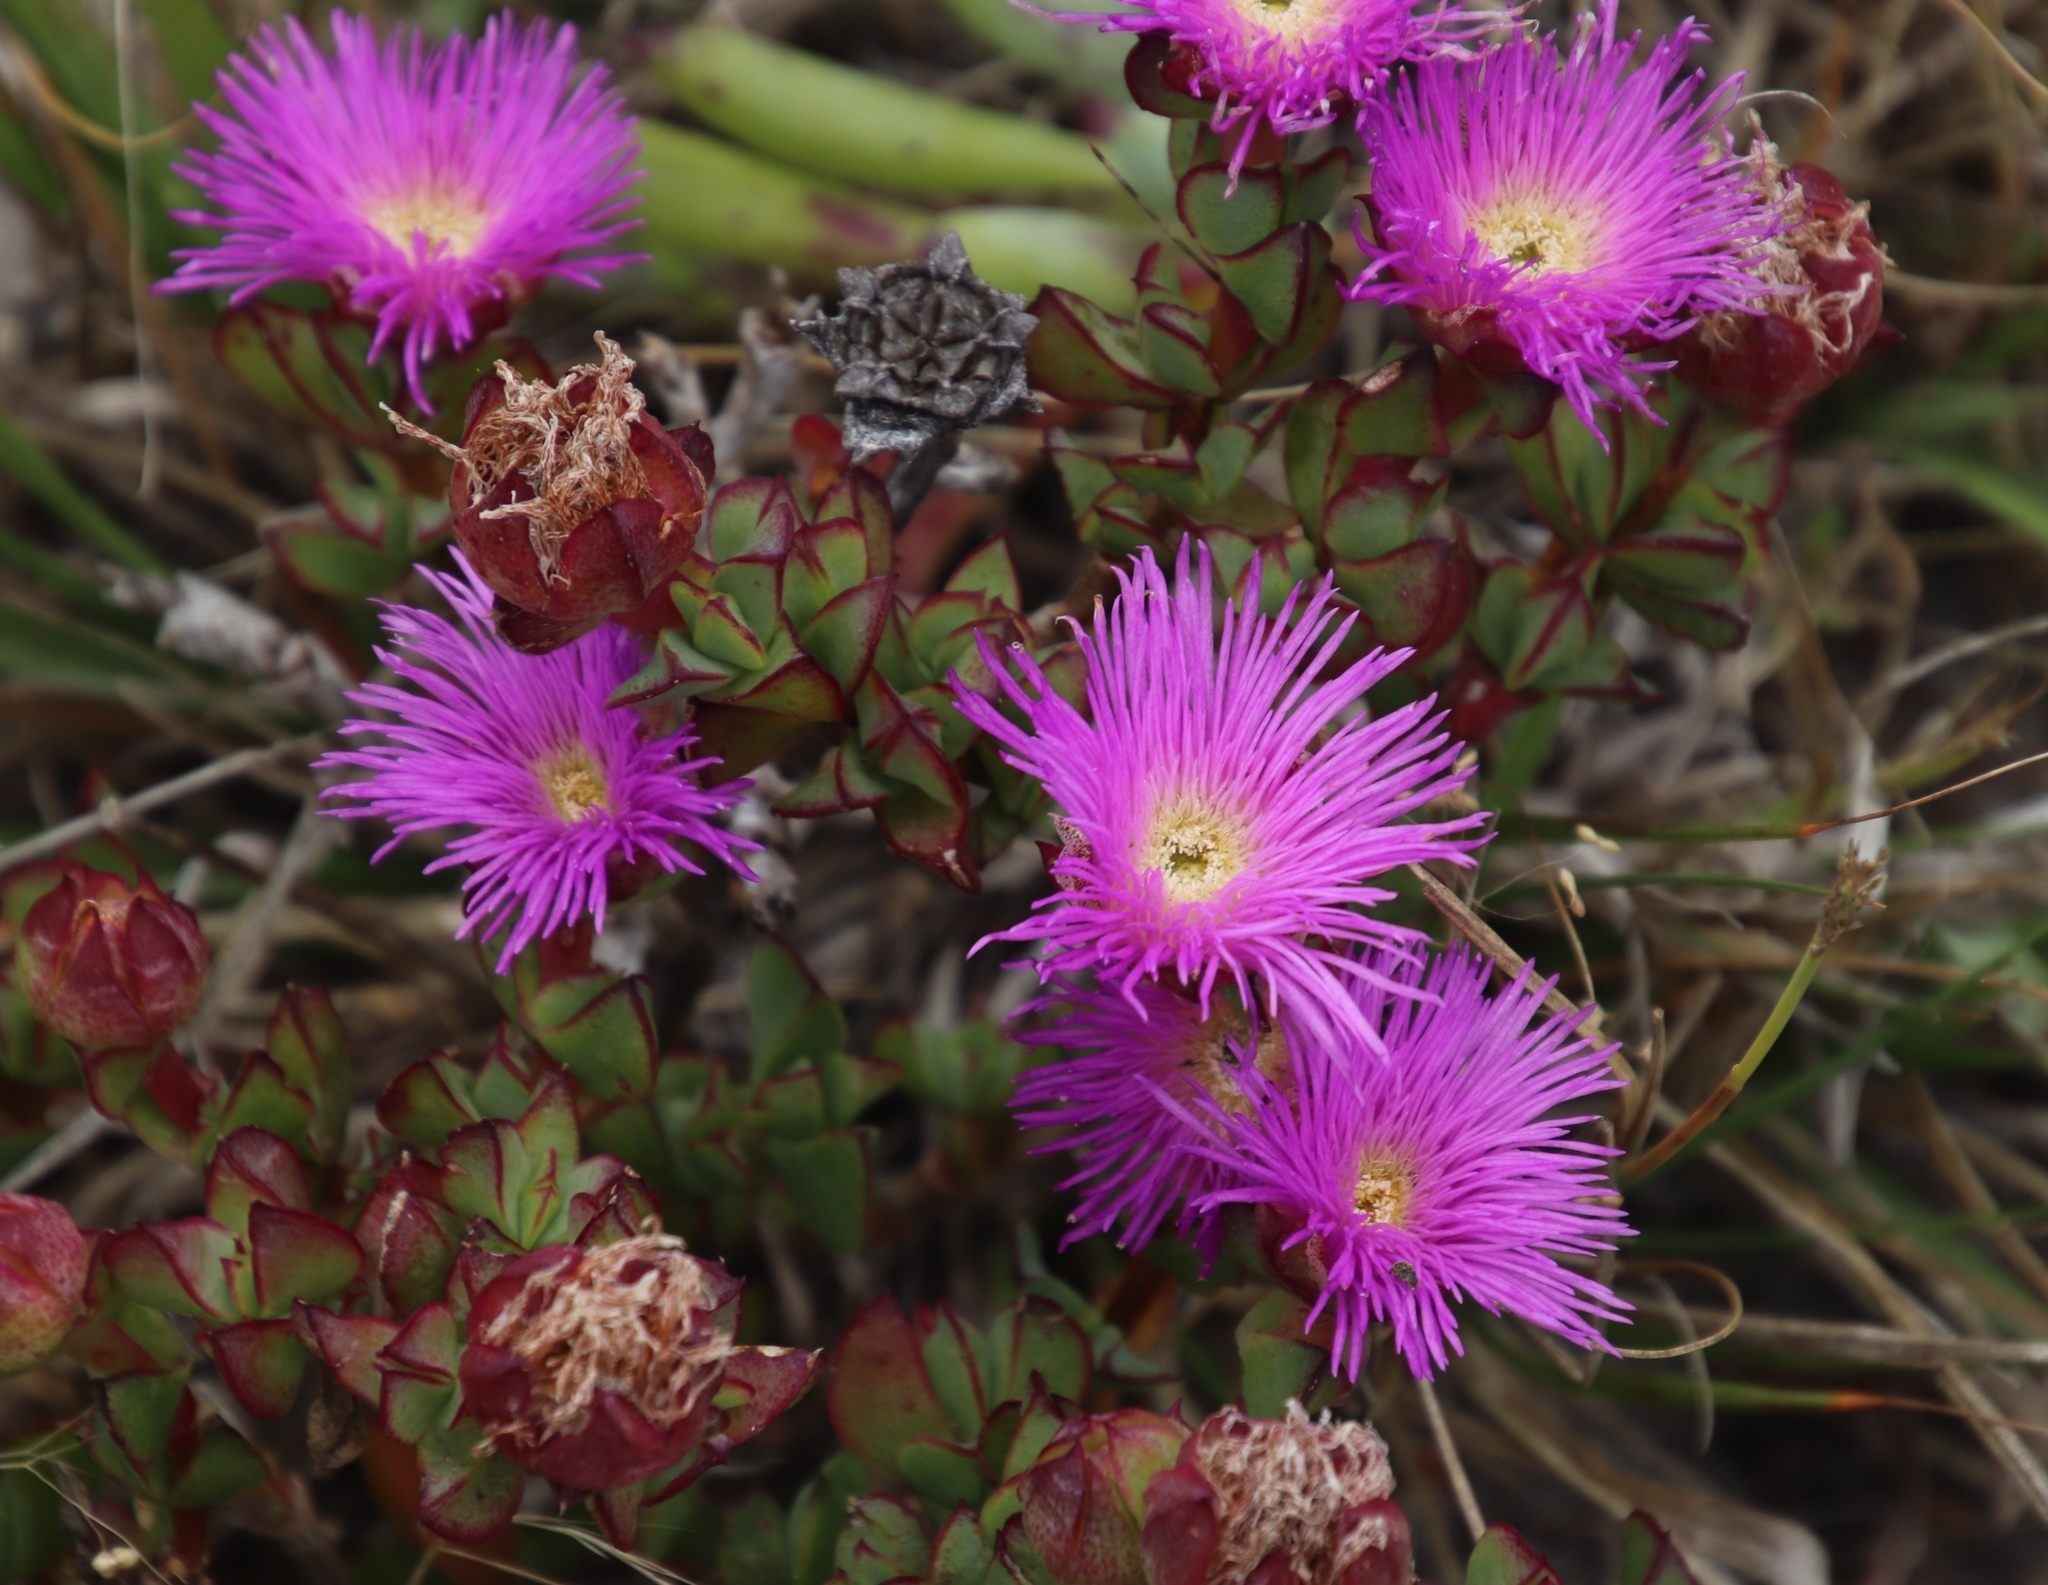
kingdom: Plantae
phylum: Tracheophyta
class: Magnoliopsida
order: Caryophyllales
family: Aizoaceae
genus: Erepsia
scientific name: Erepsia forficata
